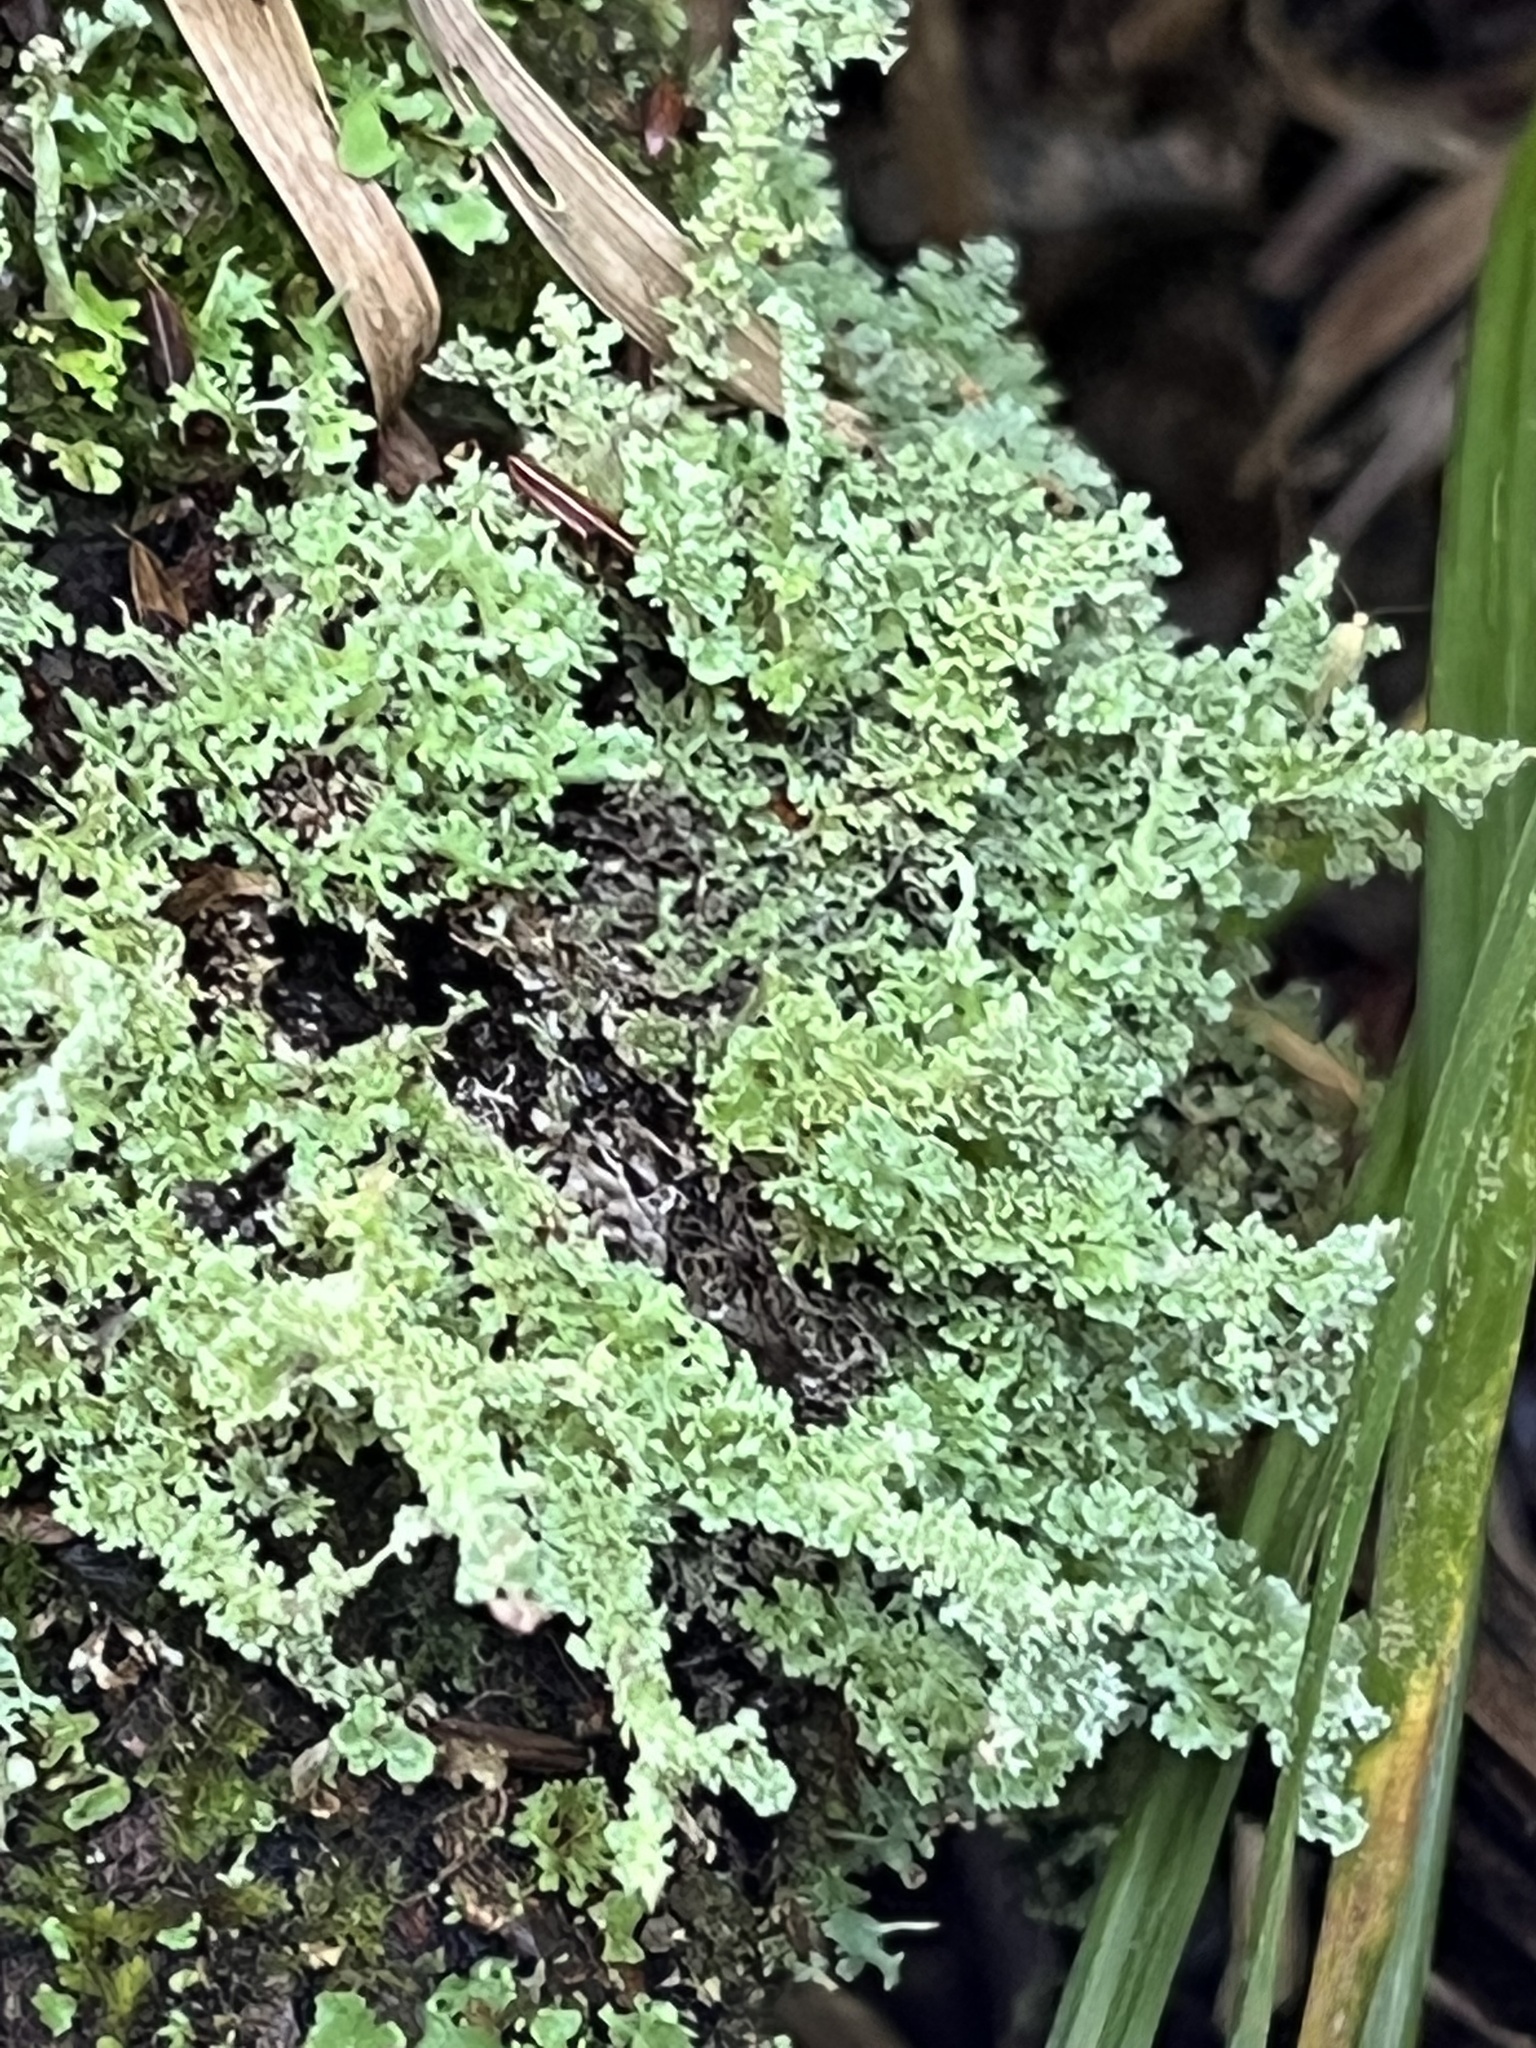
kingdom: Fungi
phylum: Ascomycota
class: Lecanoromycetes
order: Lecanorales
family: Cladoniaceae
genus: Cladonia
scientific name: Cladonia squamosa
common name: Dragon horn
